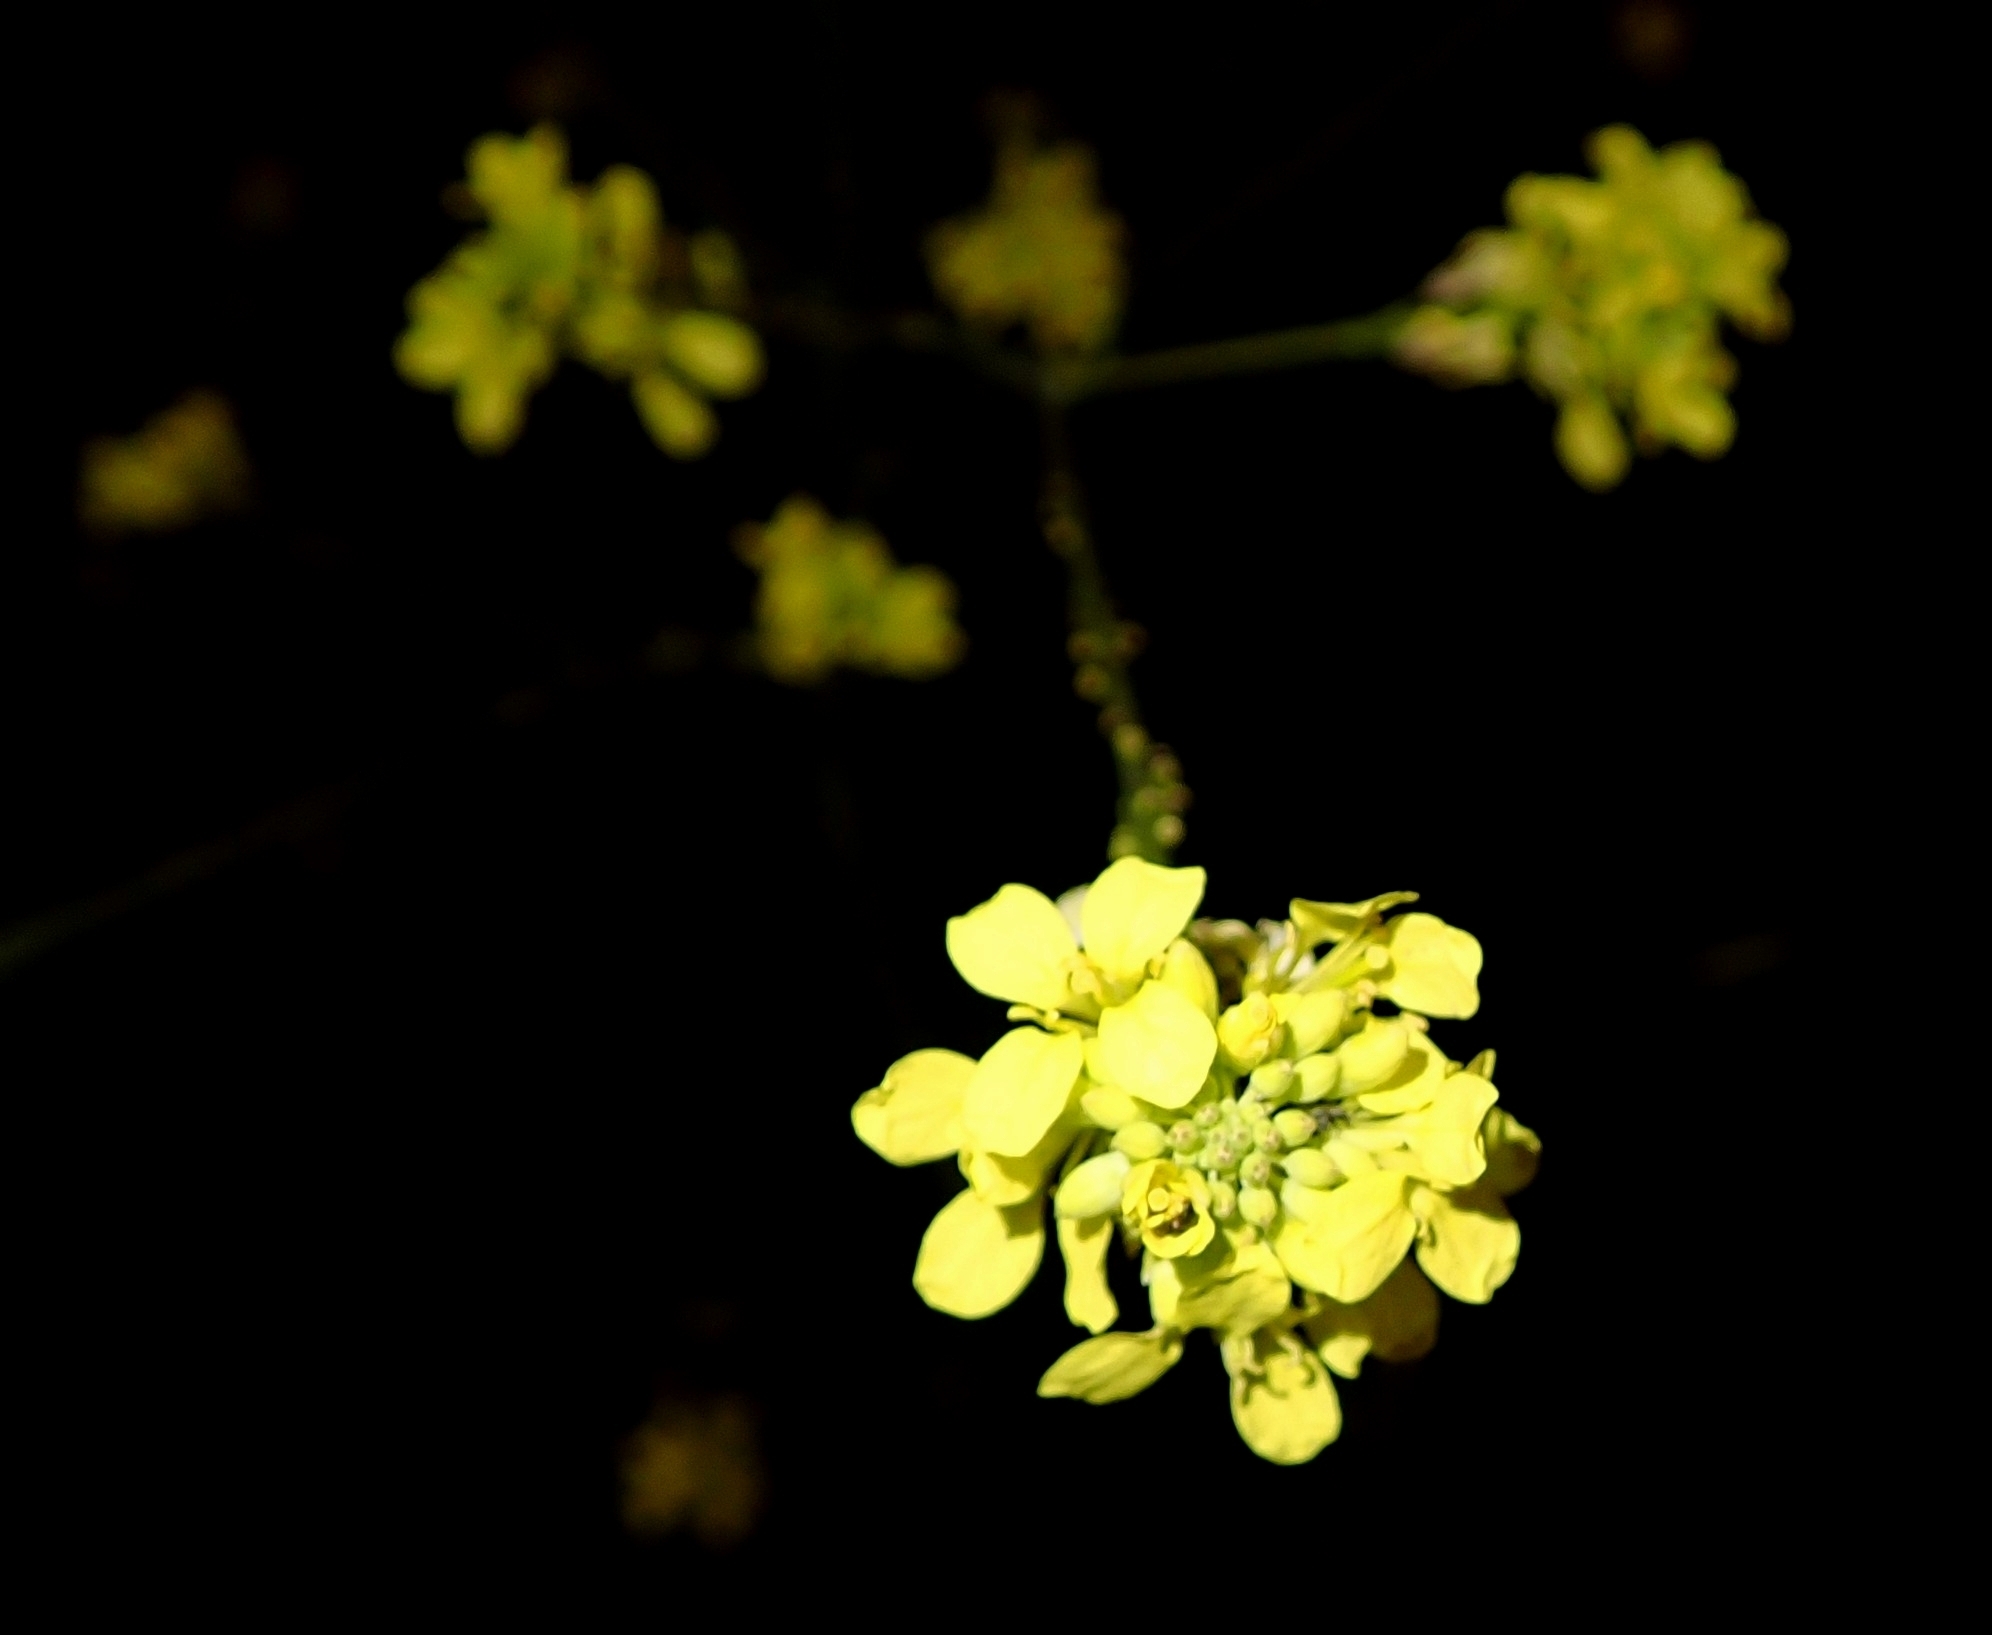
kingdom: Plantae
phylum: Tracheophyta
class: Magnoliopsida
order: Brassicales
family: Brassicaceae
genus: Hirschfeldia
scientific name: Hirschfeldia incana
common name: Hoary mustard
